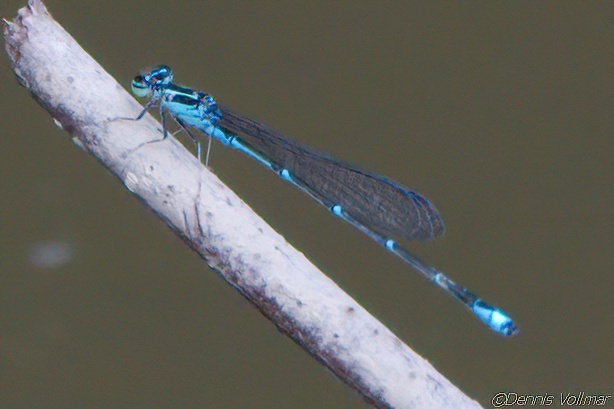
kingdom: Animalia
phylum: Arthropoda
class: Insecta
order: Odonata
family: Coenagrionidae
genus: Enallagma
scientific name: Enallagma exsulans
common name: Stream bluet
